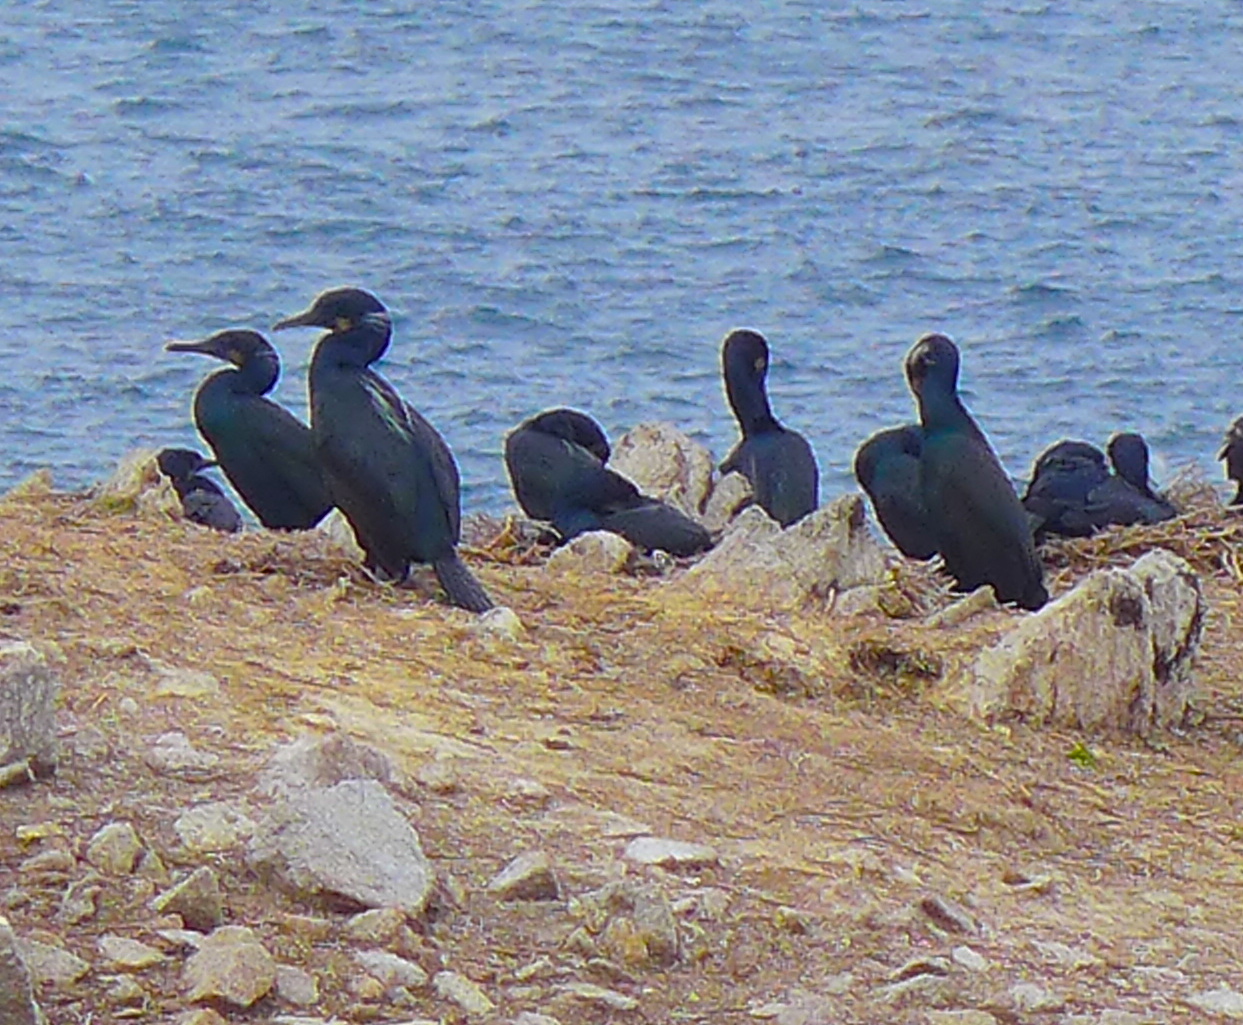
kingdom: Animalia
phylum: Chordata
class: Aves
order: Suliformes
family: Phalacrocoracidae
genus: Urile
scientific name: Urile penicillatus
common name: Brandt's cormorant
